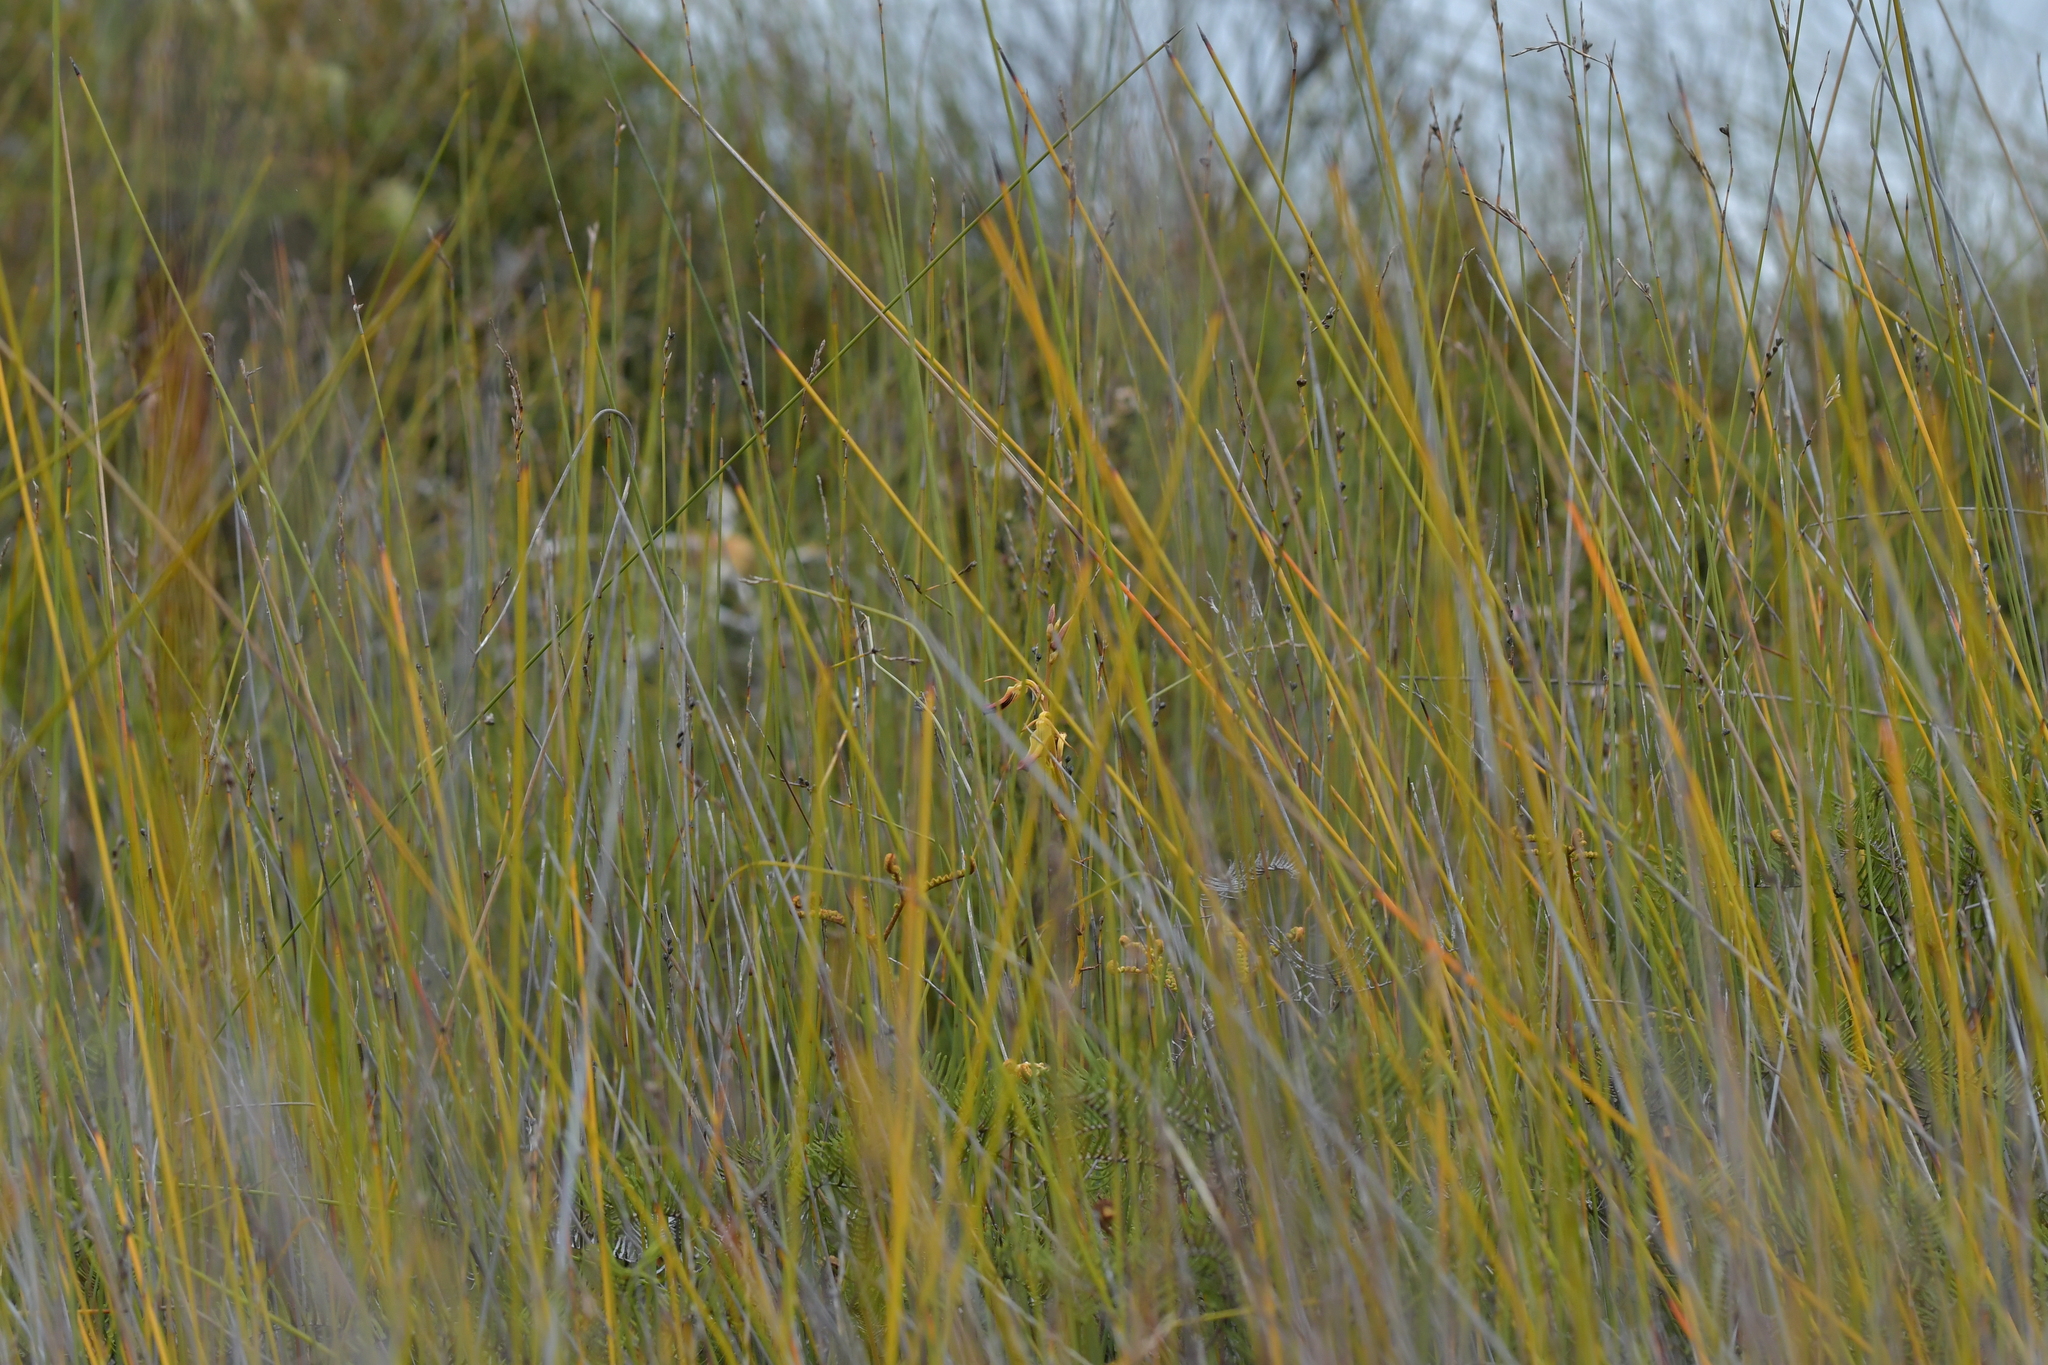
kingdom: Plantae
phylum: Tracheophyta
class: Liliopsida
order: Asparagales
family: Orchidaceae
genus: Cryptostylis
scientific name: Cryptostylis subulata
